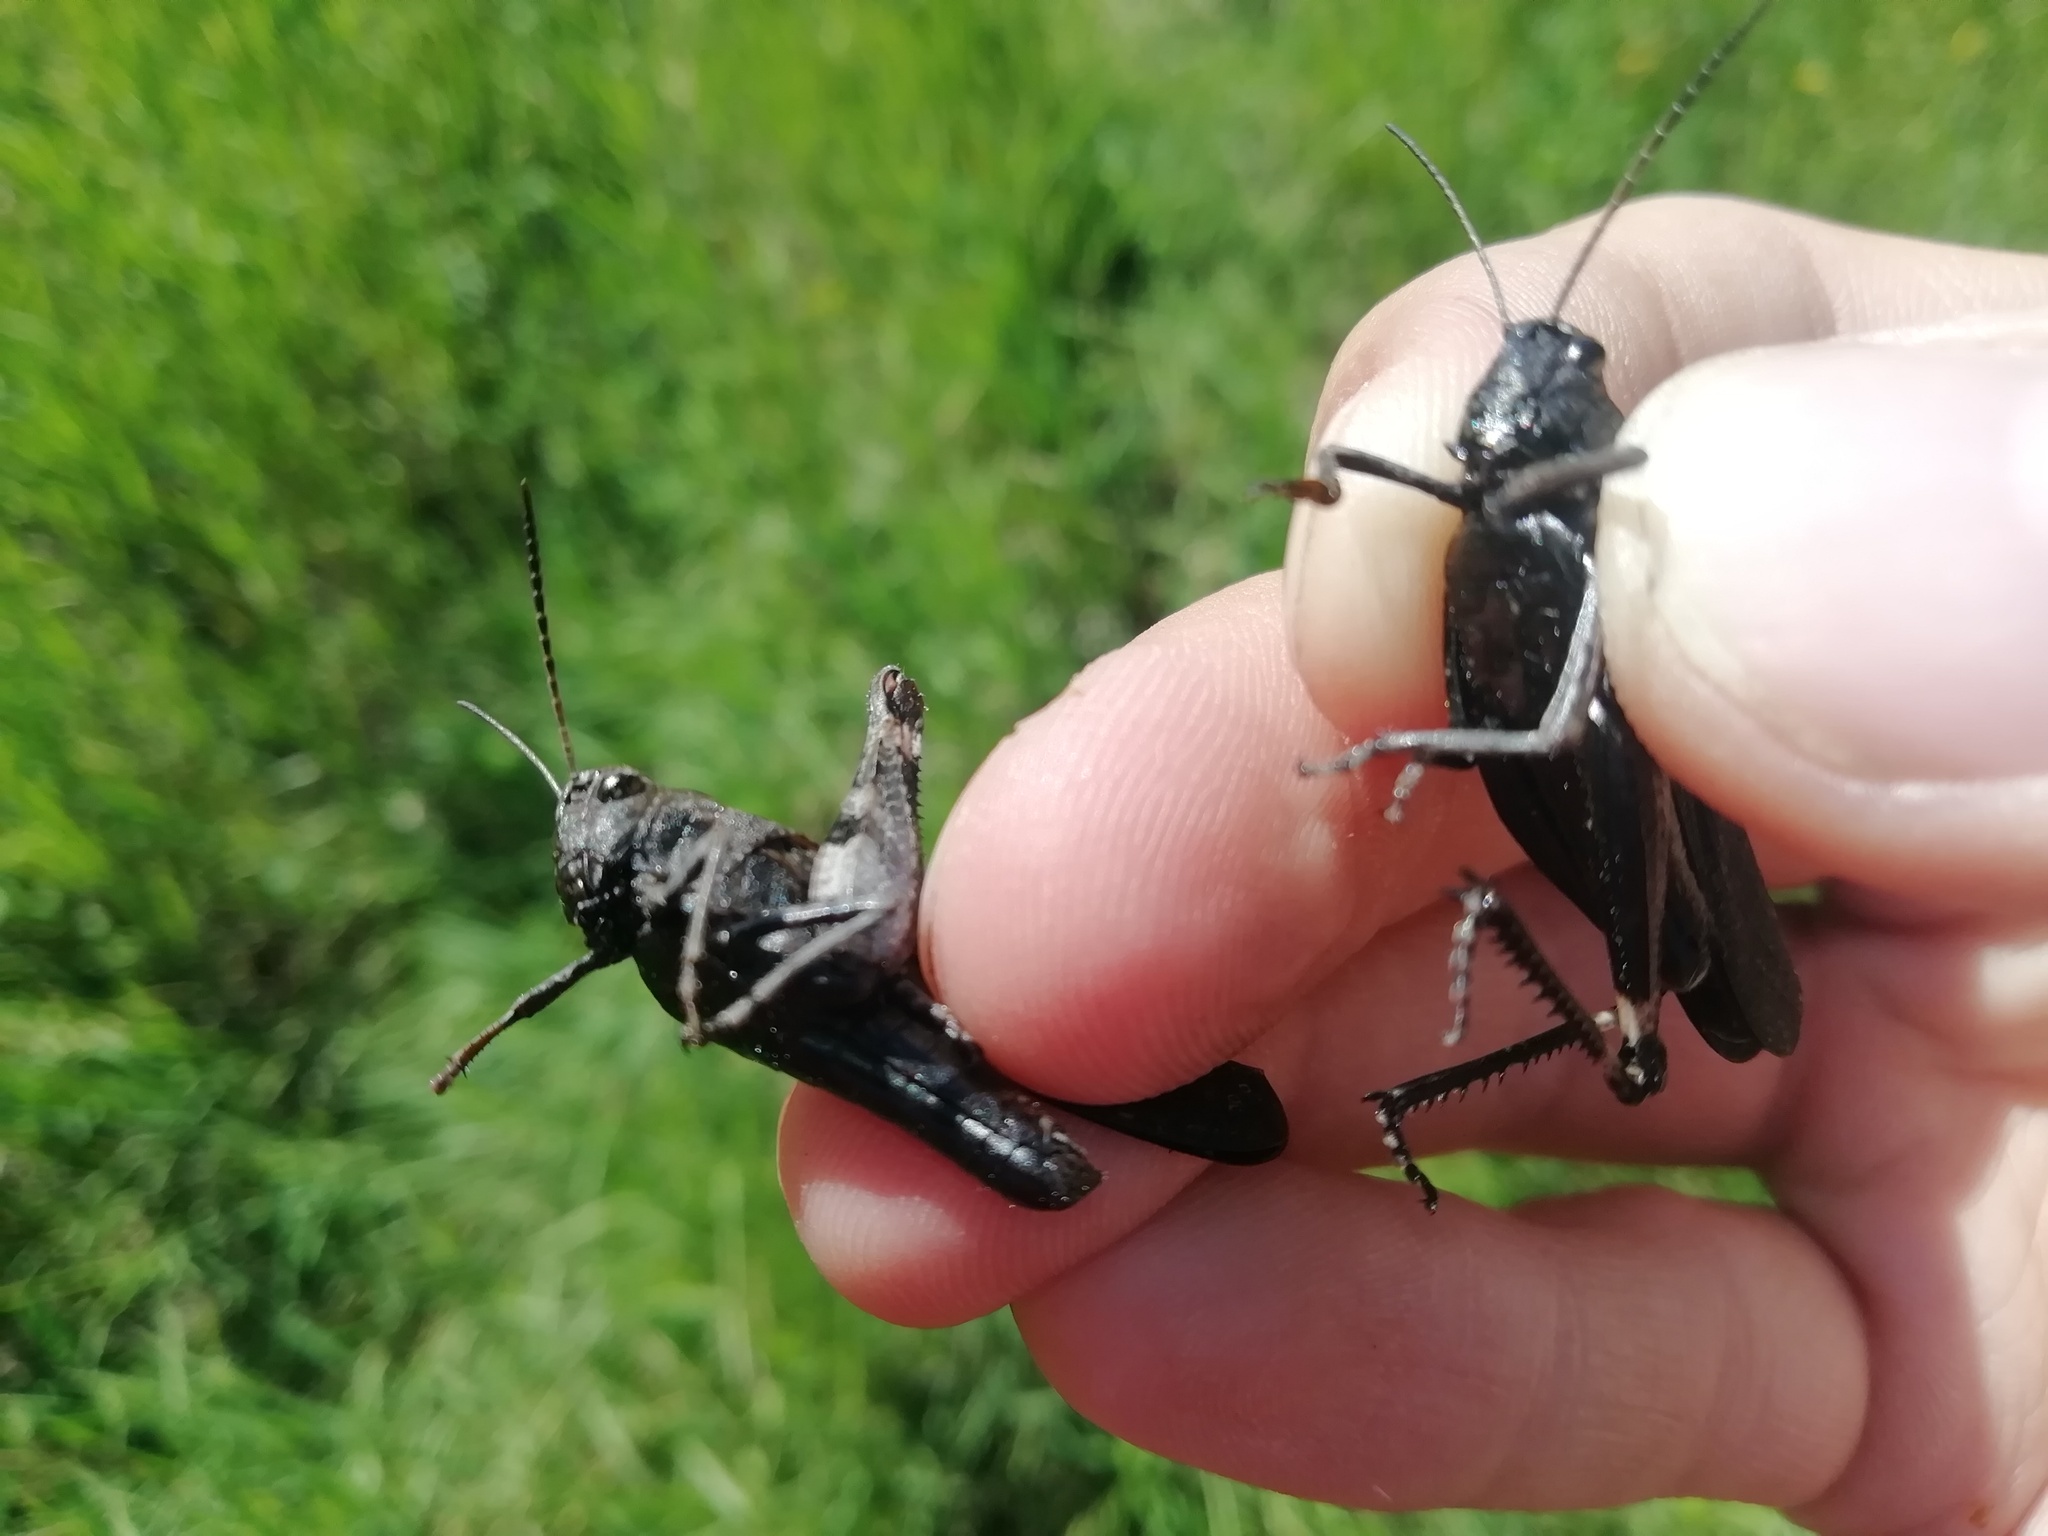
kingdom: Animalia
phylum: Arthropoda
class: Insecta
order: Orthoptera
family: Acrididae
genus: Psophus
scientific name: Psophus stridulus
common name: Rattle grasshopper
